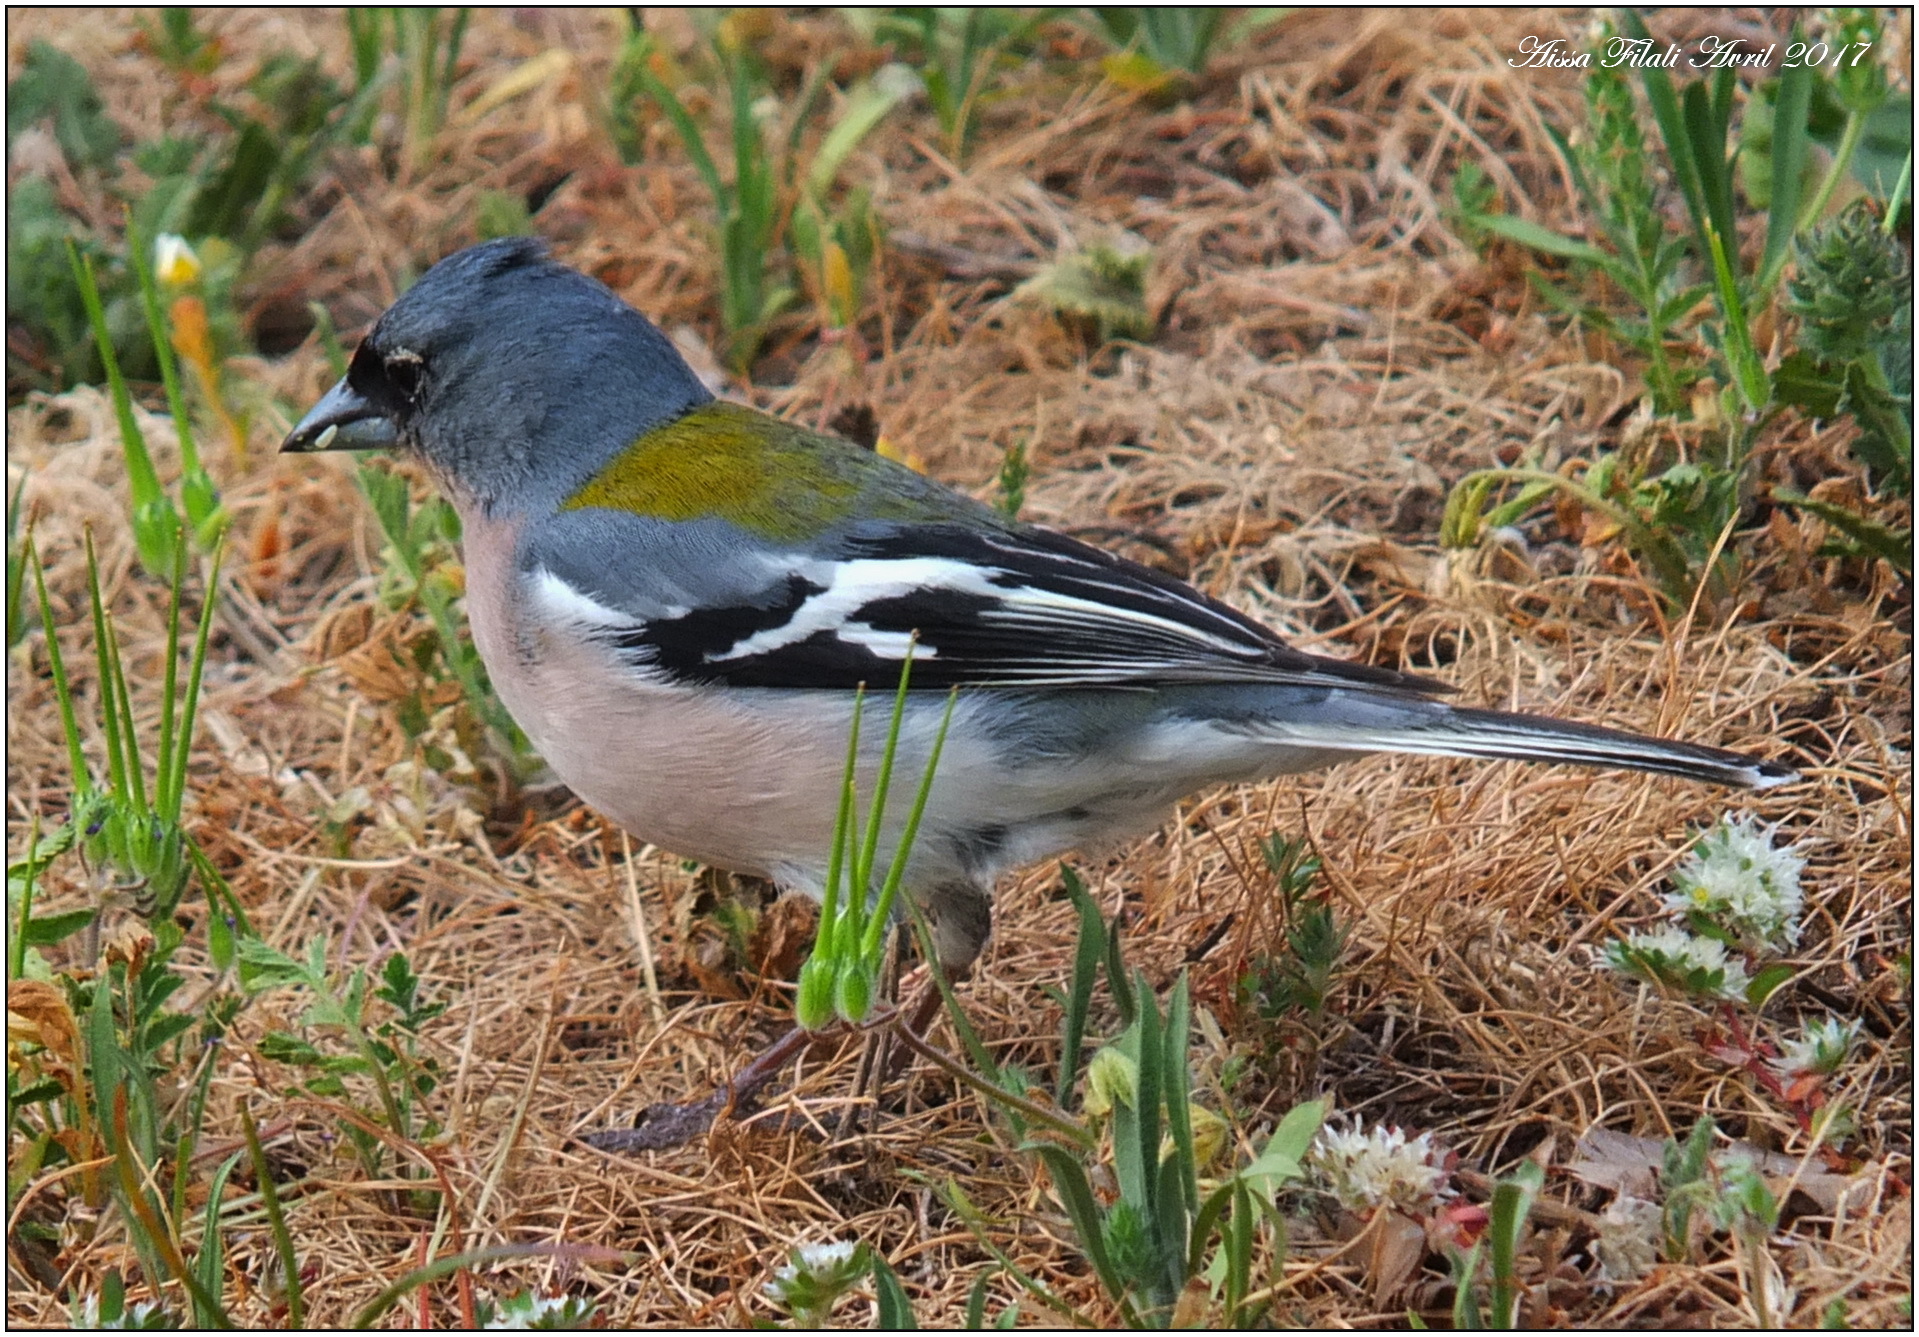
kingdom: Animalia
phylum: Chordata
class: Aves
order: Passeriformes
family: Fringillidae
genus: Fringilla
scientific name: Fringilla spodiogenys
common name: African chaffinch
